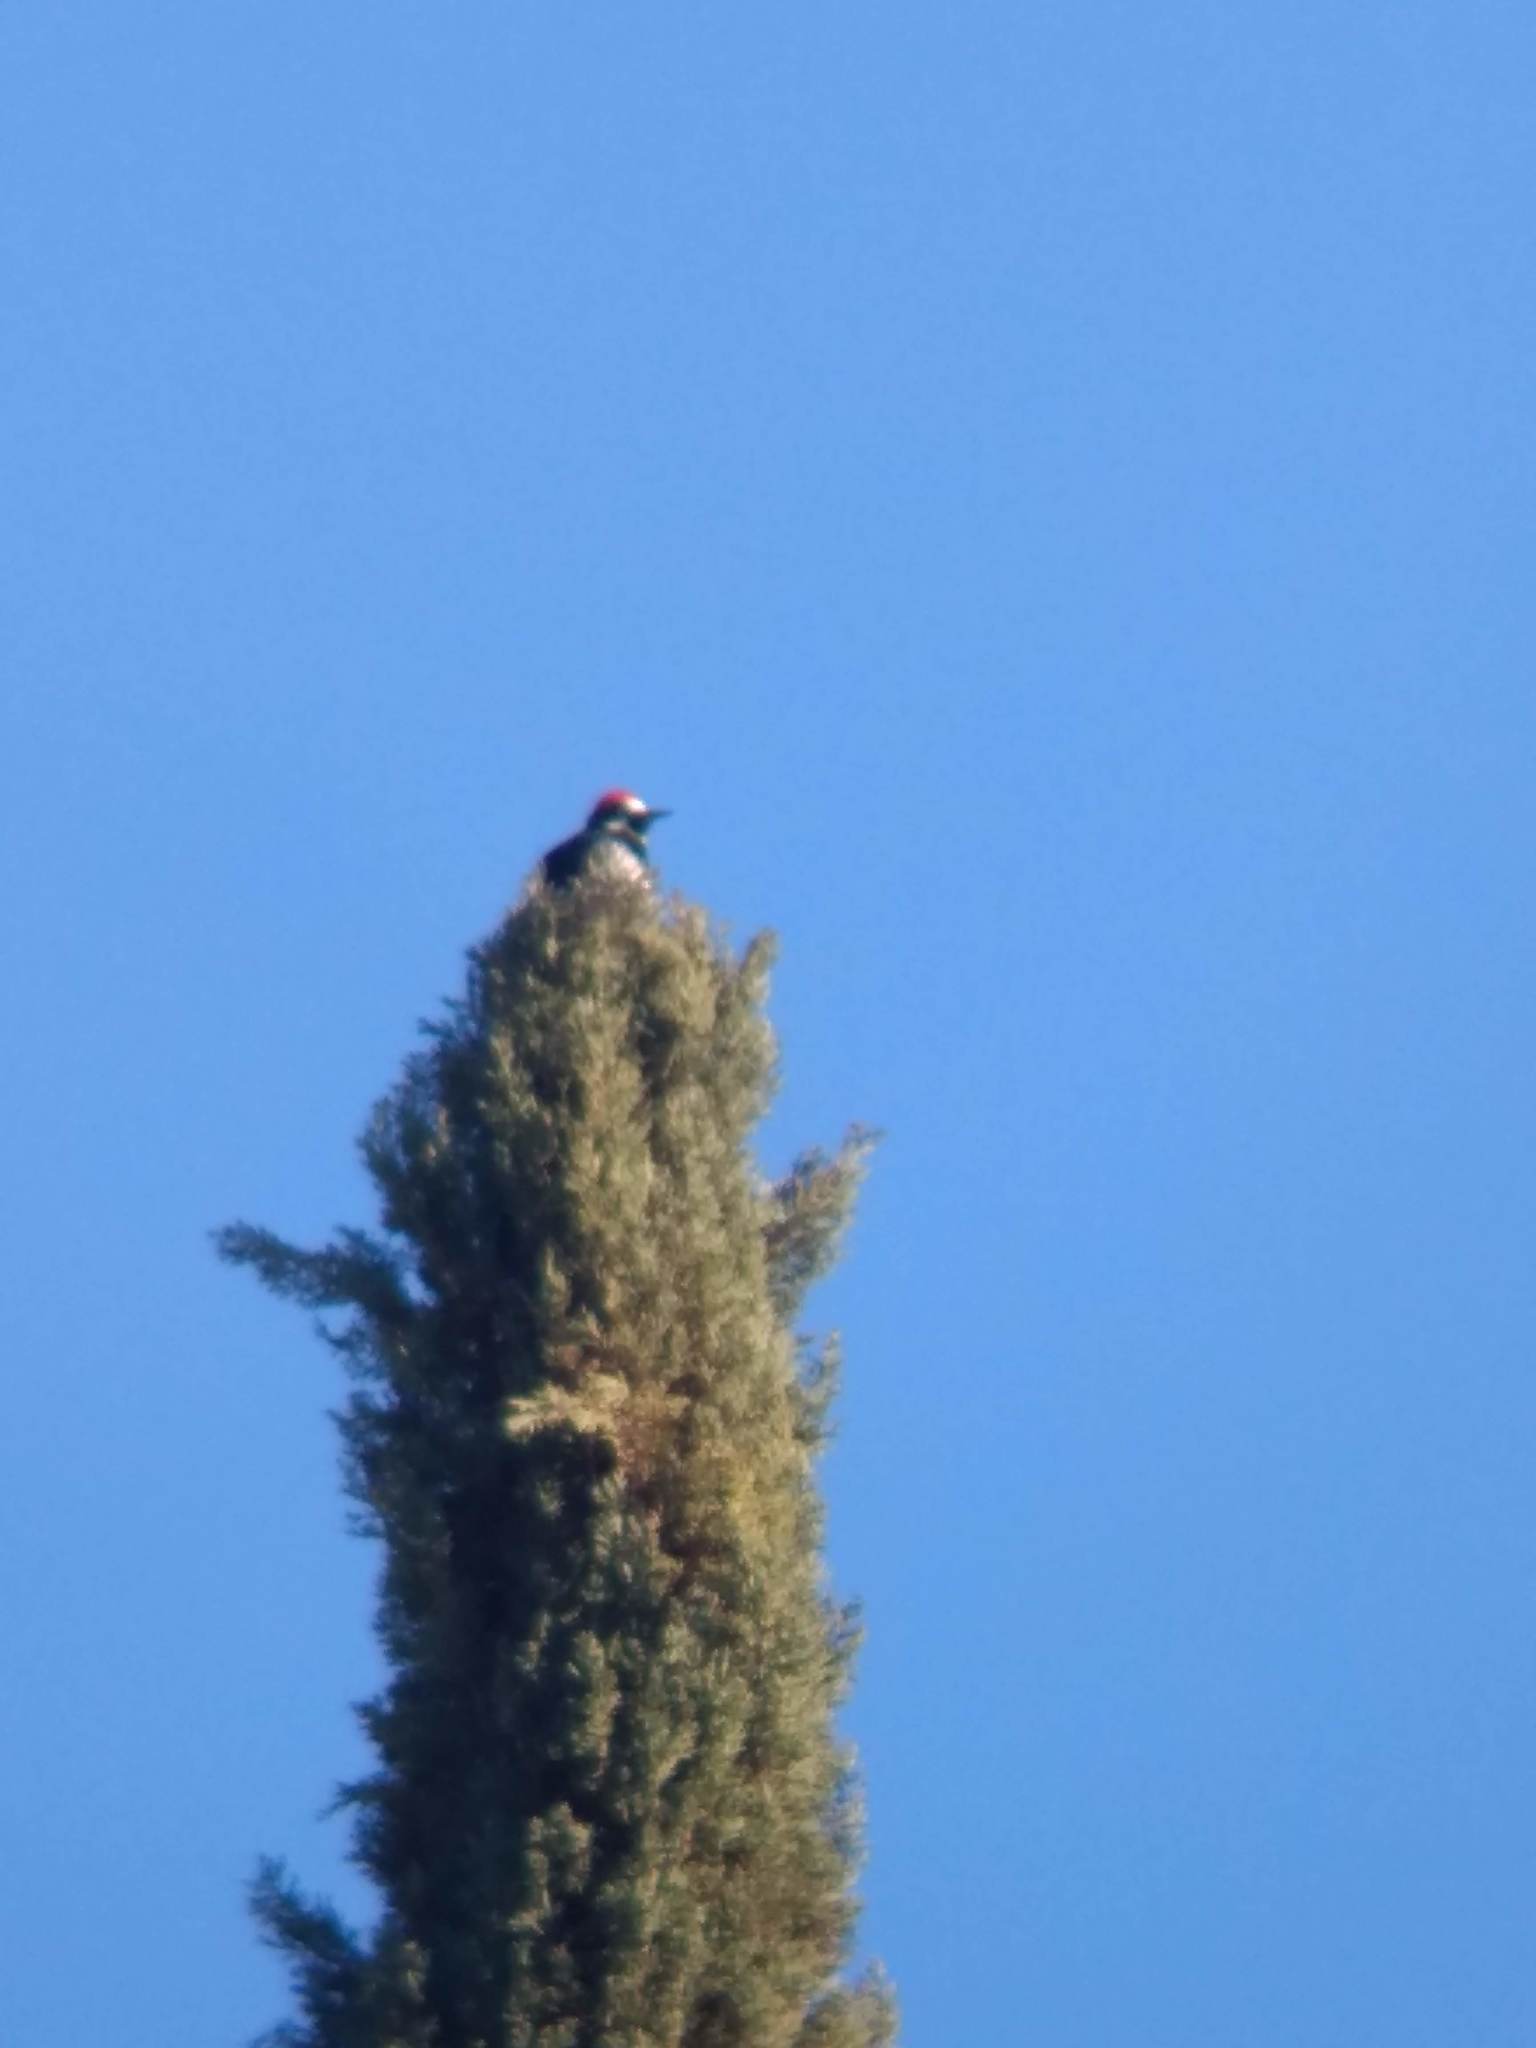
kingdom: Animalia
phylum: Chordata
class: Aves
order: Piciformes
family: Picidae
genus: Melanerpes
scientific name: Melanerpes formicivorus
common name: Acorn woodpecker
